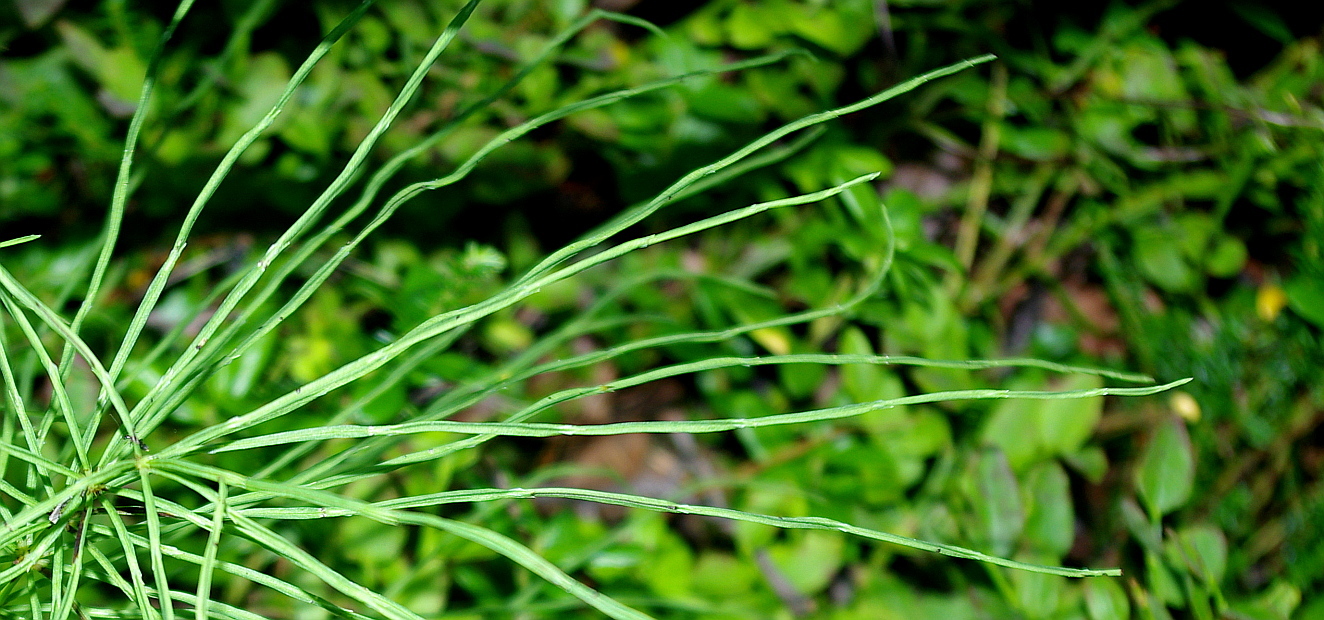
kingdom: Plantae
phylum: Tracheophyta
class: Polypodiopsida
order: Equisetales
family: Equisetaceae
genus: Equisetum
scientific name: Equisetum arvense
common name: Field horsetail
